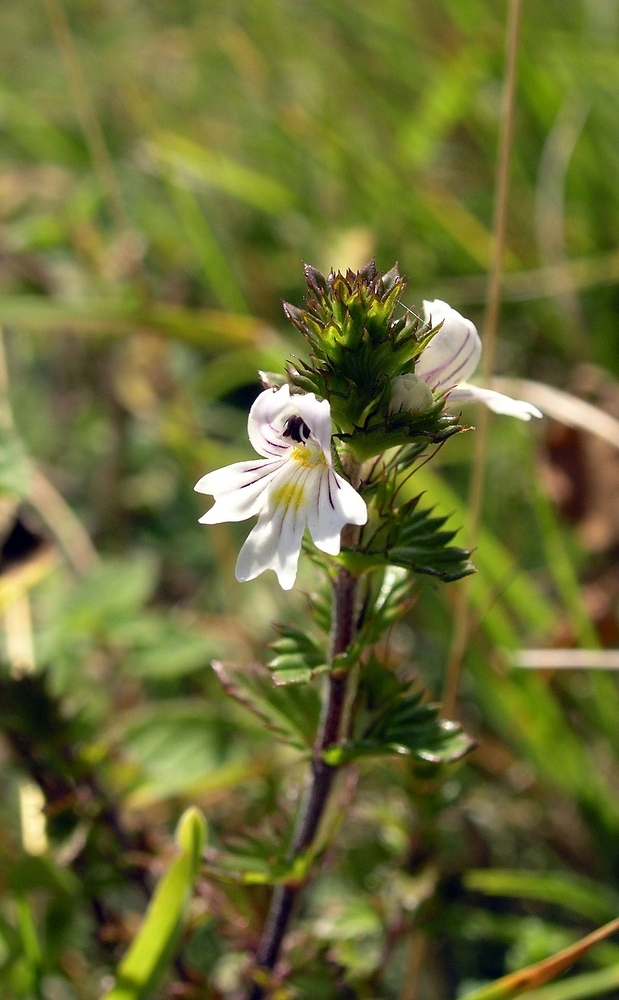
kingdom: Plantae
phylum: Tracheophyta
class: Magnoliopsida
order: Lamiales
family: Orobanchaceae
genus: Euphrasia
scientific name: Euphrasia officinalis
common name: Eyebright
